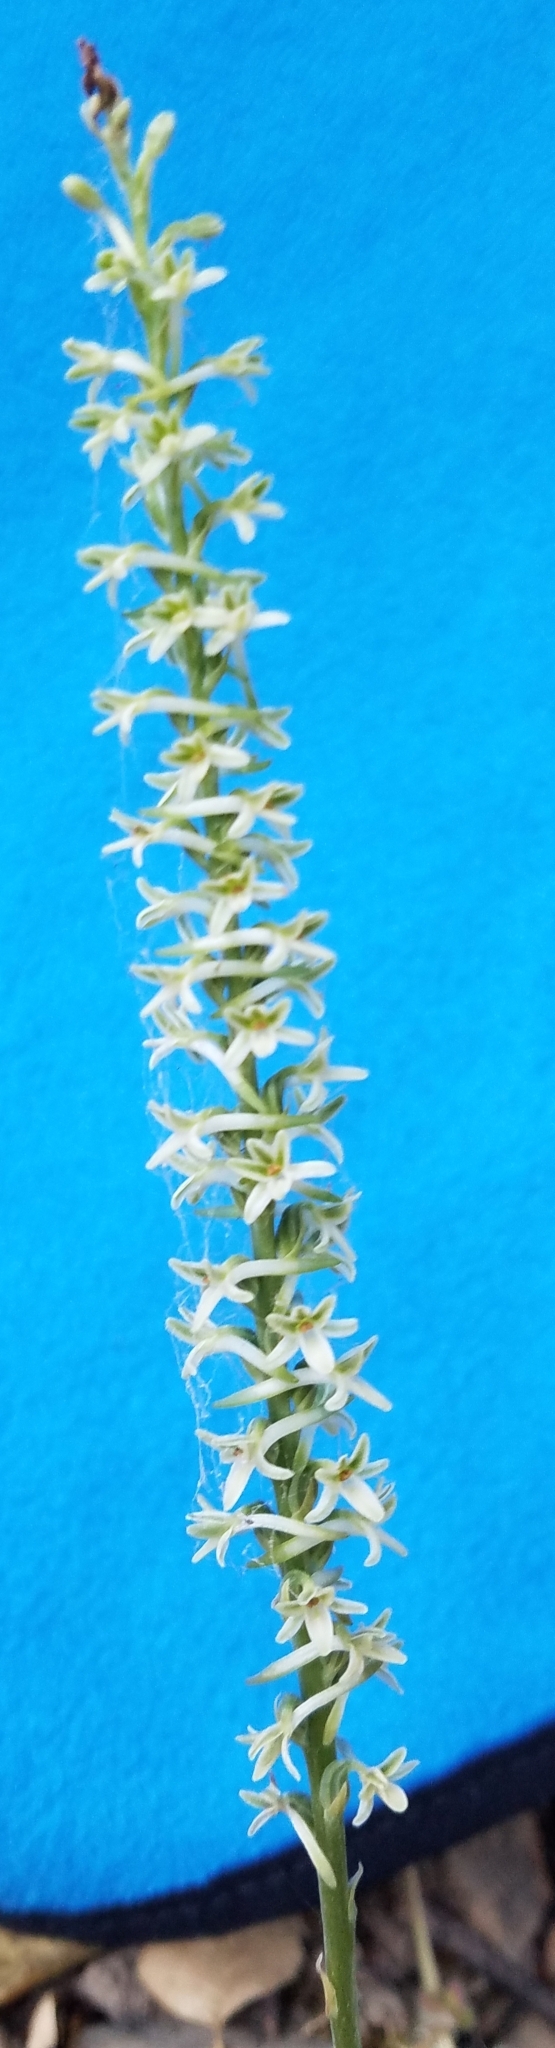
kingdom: Plantae
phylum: Tracheophyta
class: Liliopsida
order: Asparagales
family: Orchidaceae
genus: Platanthera
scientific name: Platanthera transversa
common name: Royal rein orchid
